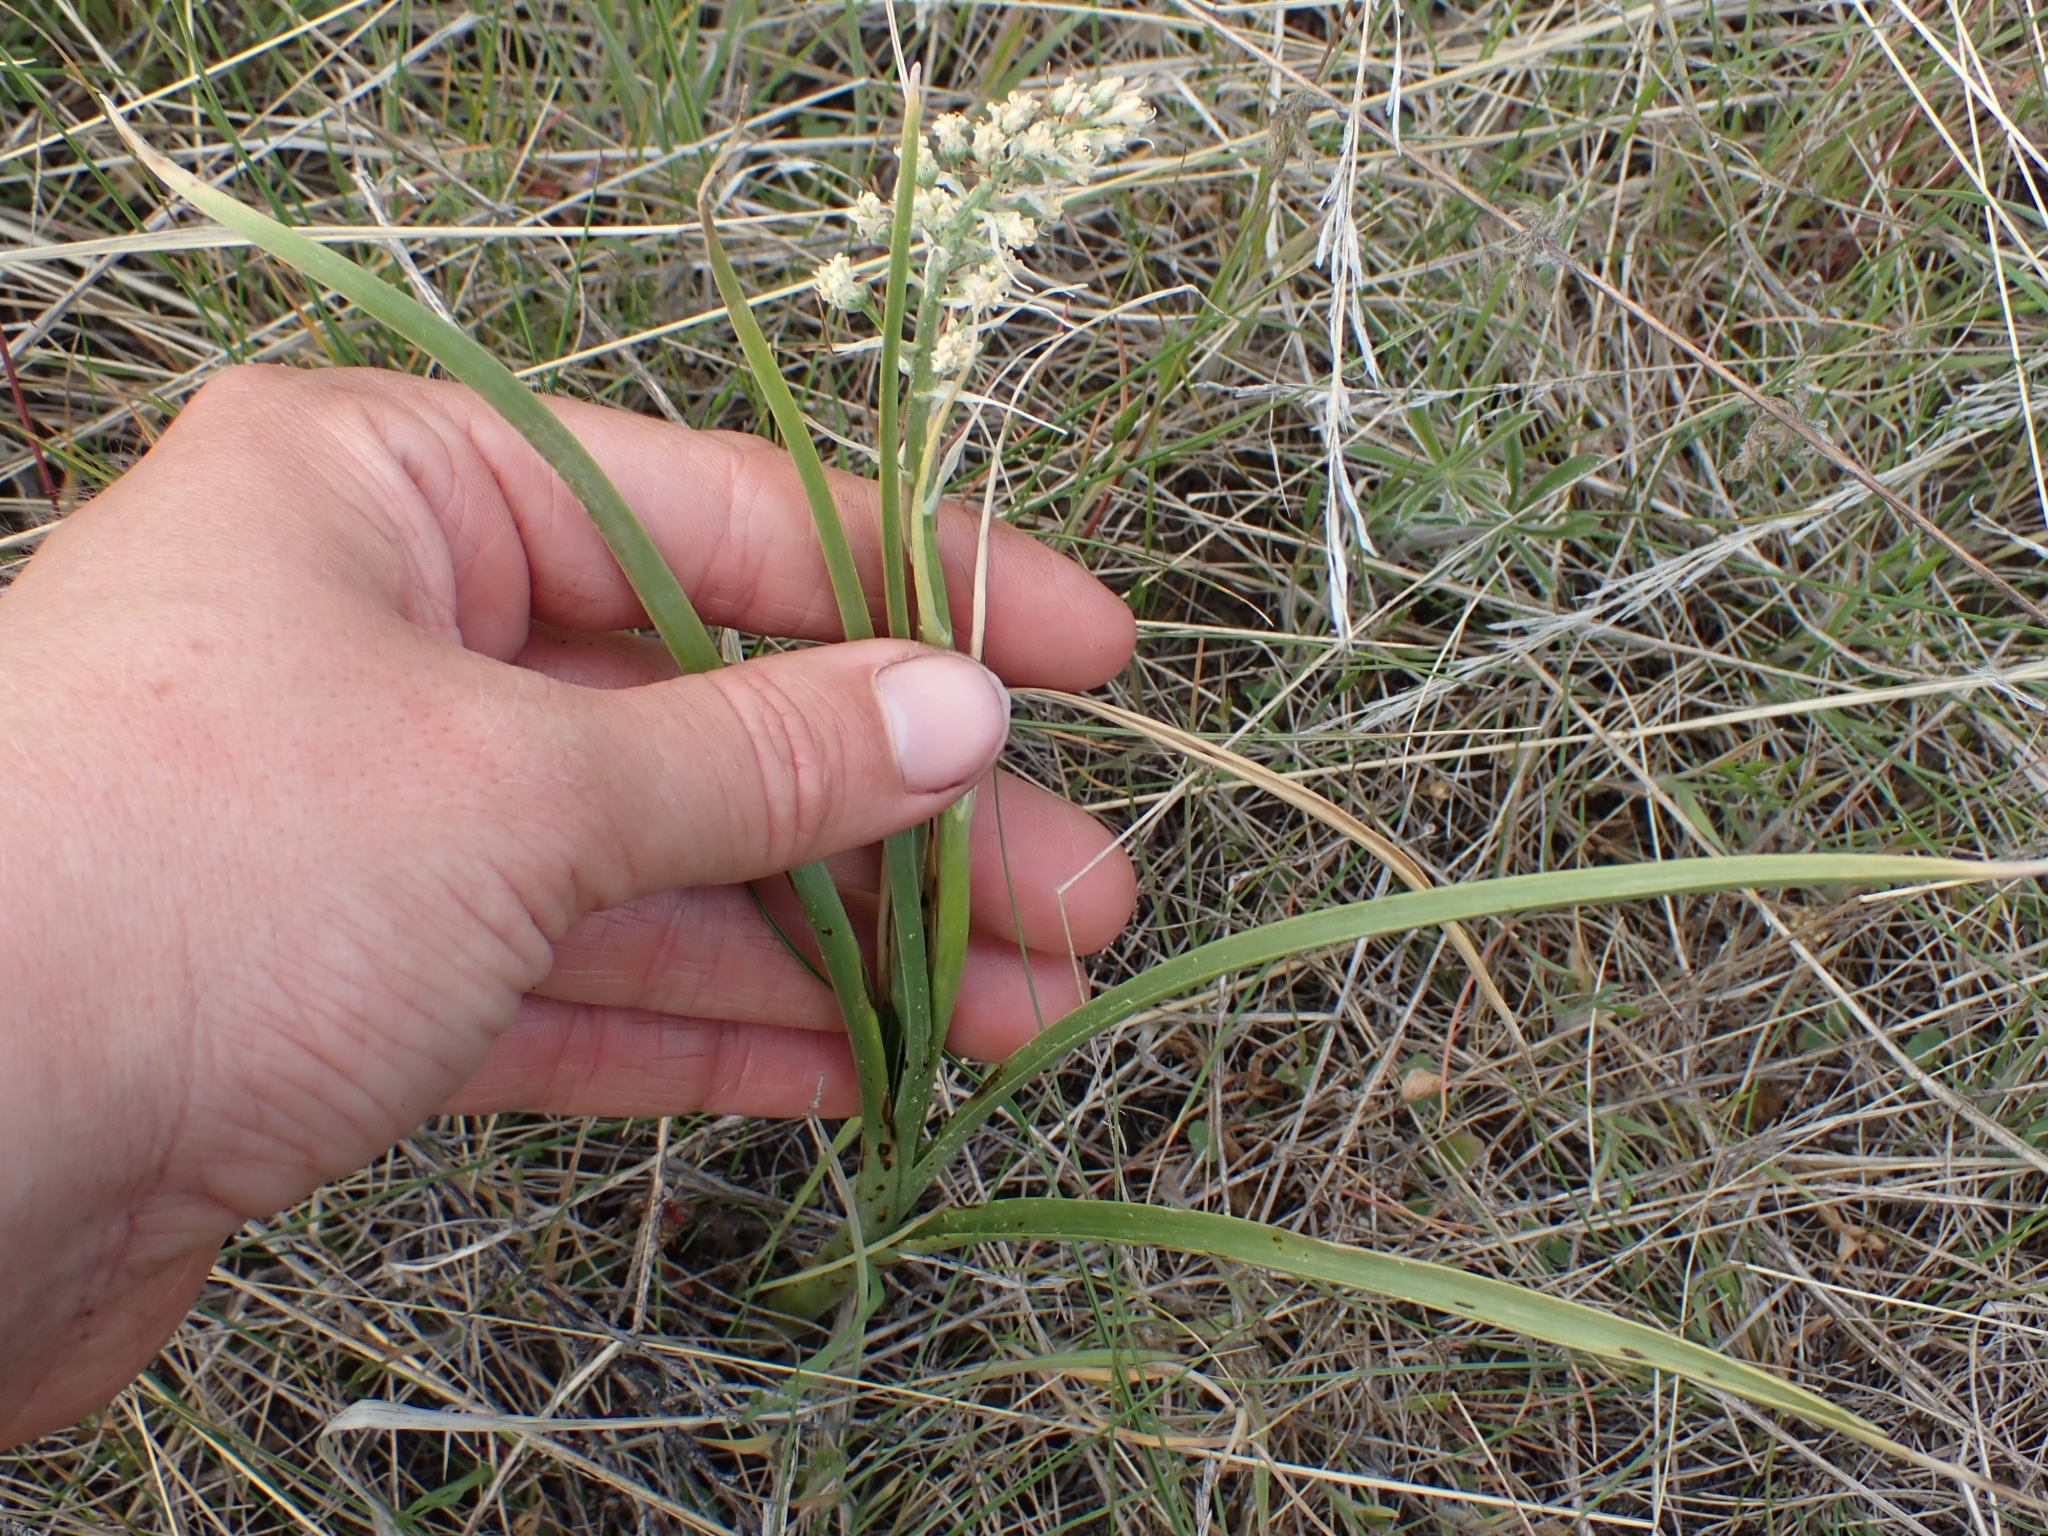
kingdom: Plantae
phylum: Tracheophyta
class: Liliopsida
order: Liliales
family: Melanthiaceae
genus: Toxicoscordion
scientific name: Toxicoscordion venenosum
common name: Meadow death camas
